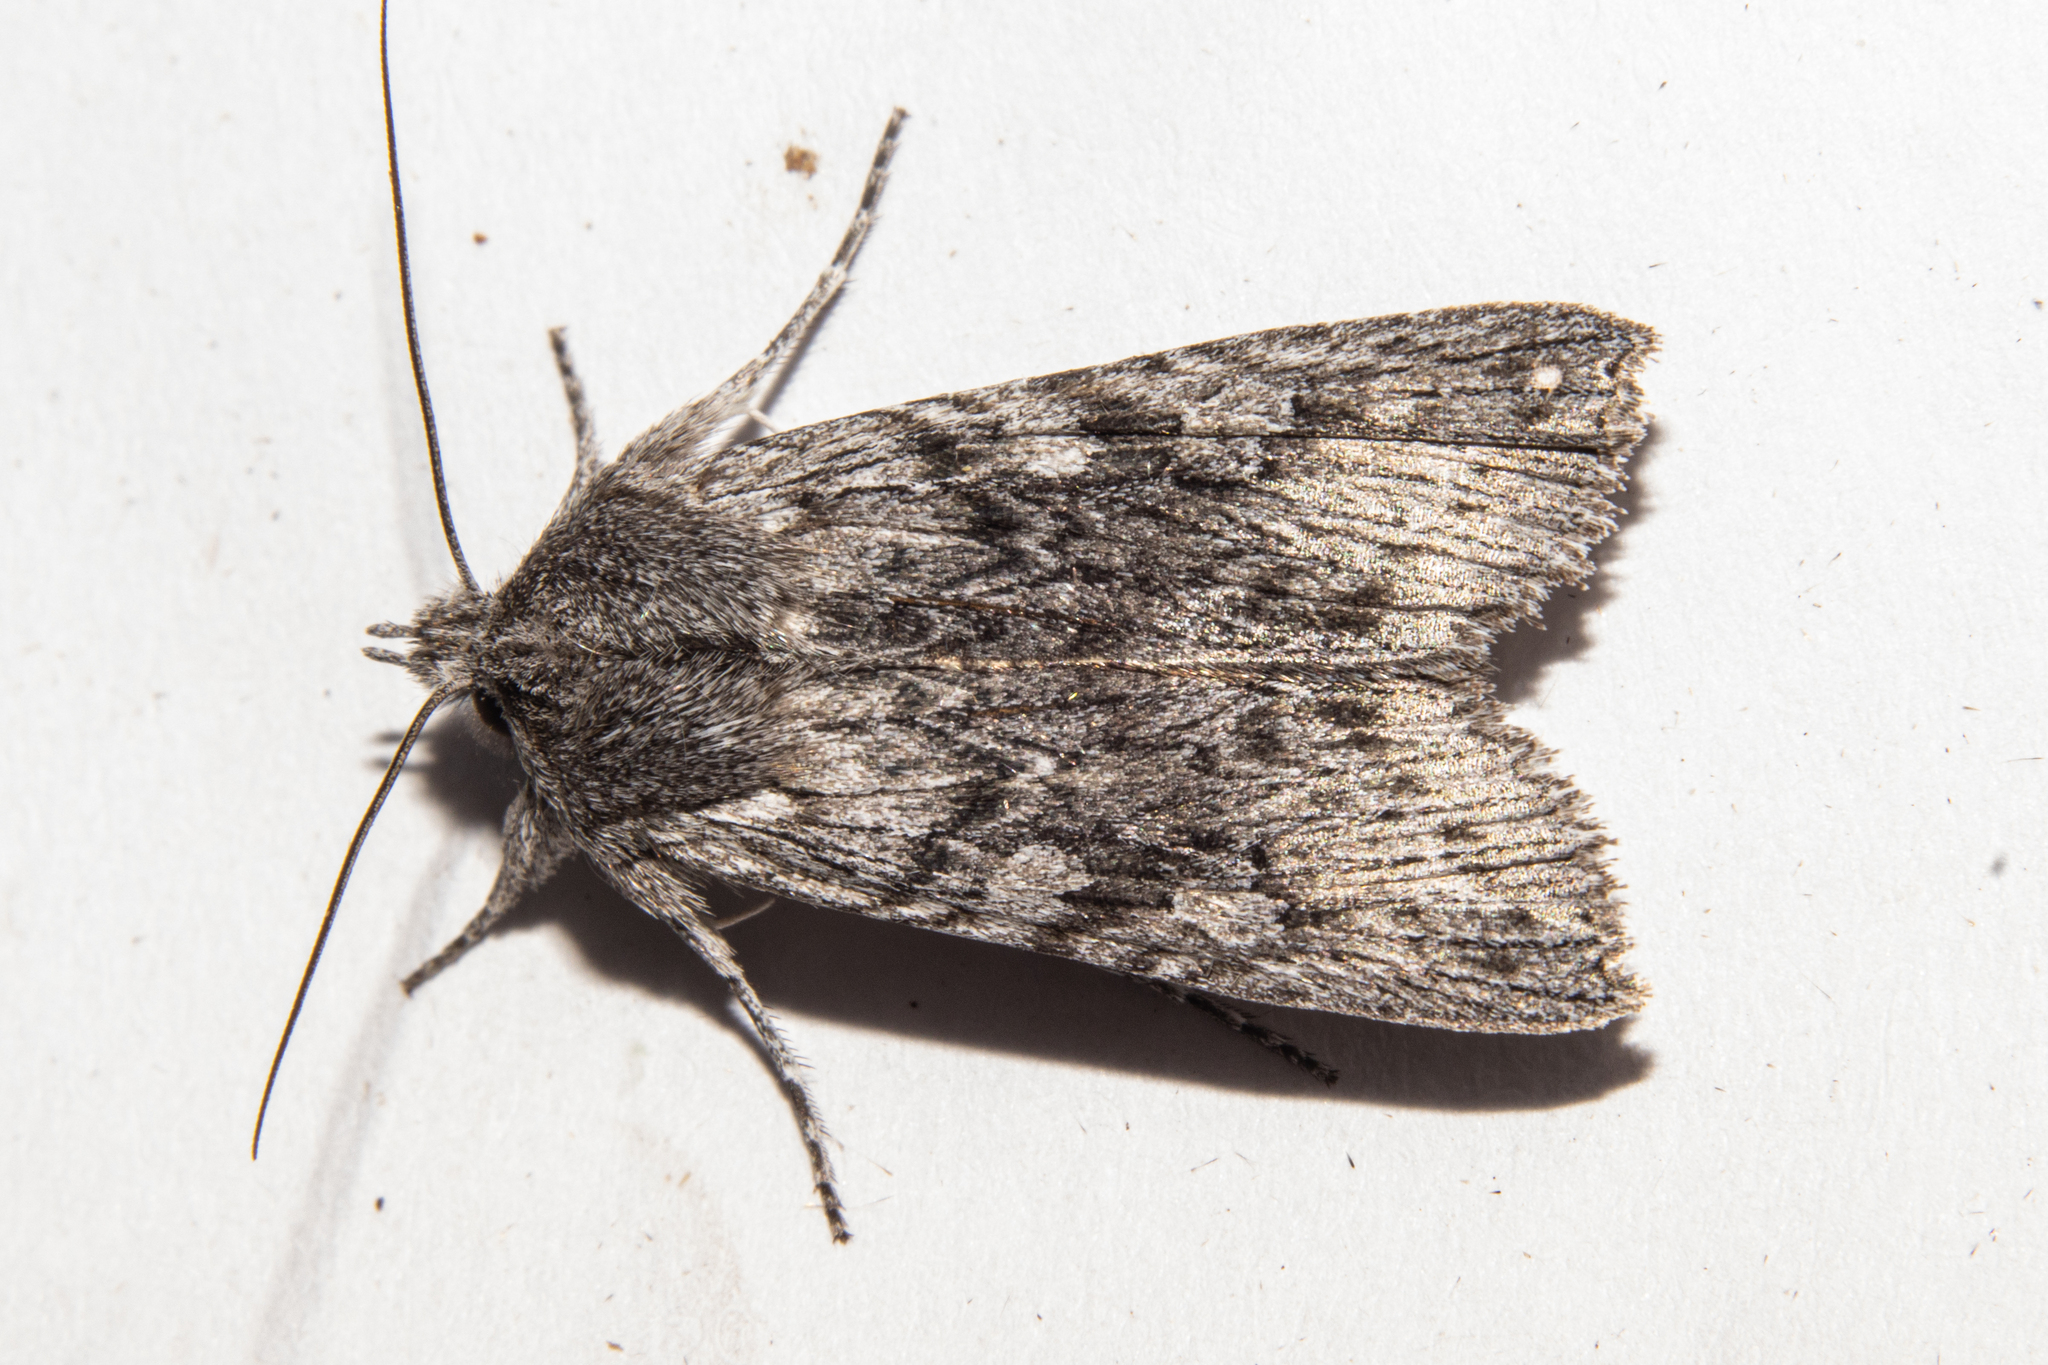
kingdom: Animalia
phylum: Arthropoda
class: Insecta
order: Lepidoptera
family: Noctuidae
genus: Physetica
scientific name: Physetica phricias
